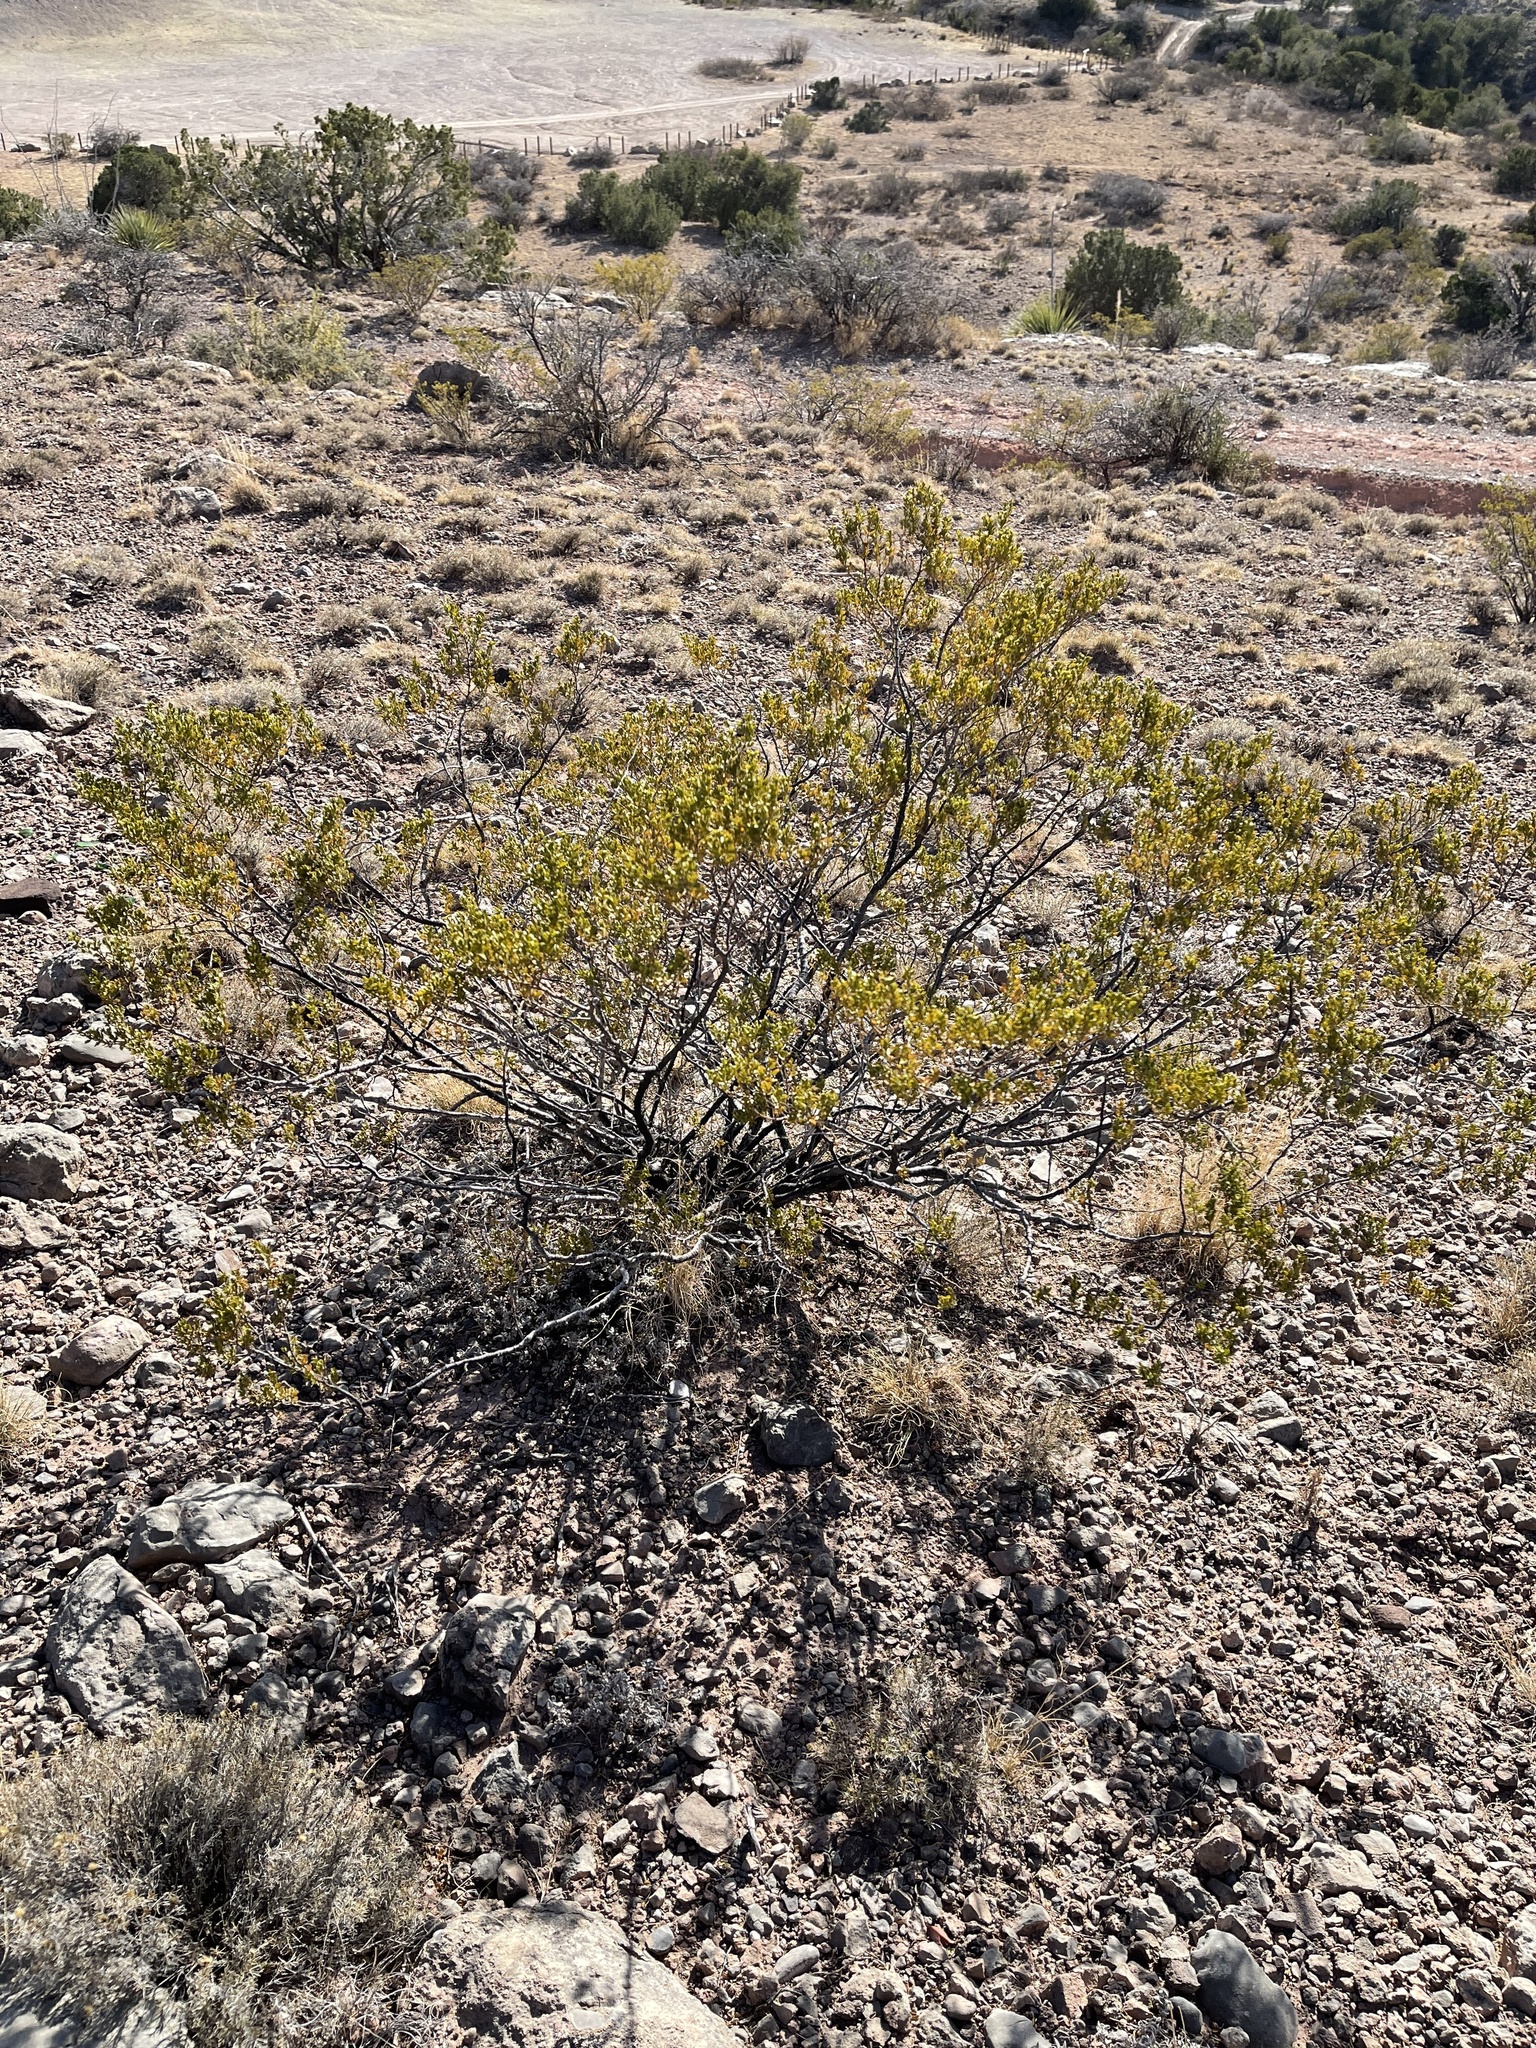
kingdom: Plantae
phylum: Tracheophyta
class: Magnoliopsida
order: Zygophyllales
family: Zygophyllaceae
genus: Larrea
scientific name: Larrea tridentata
